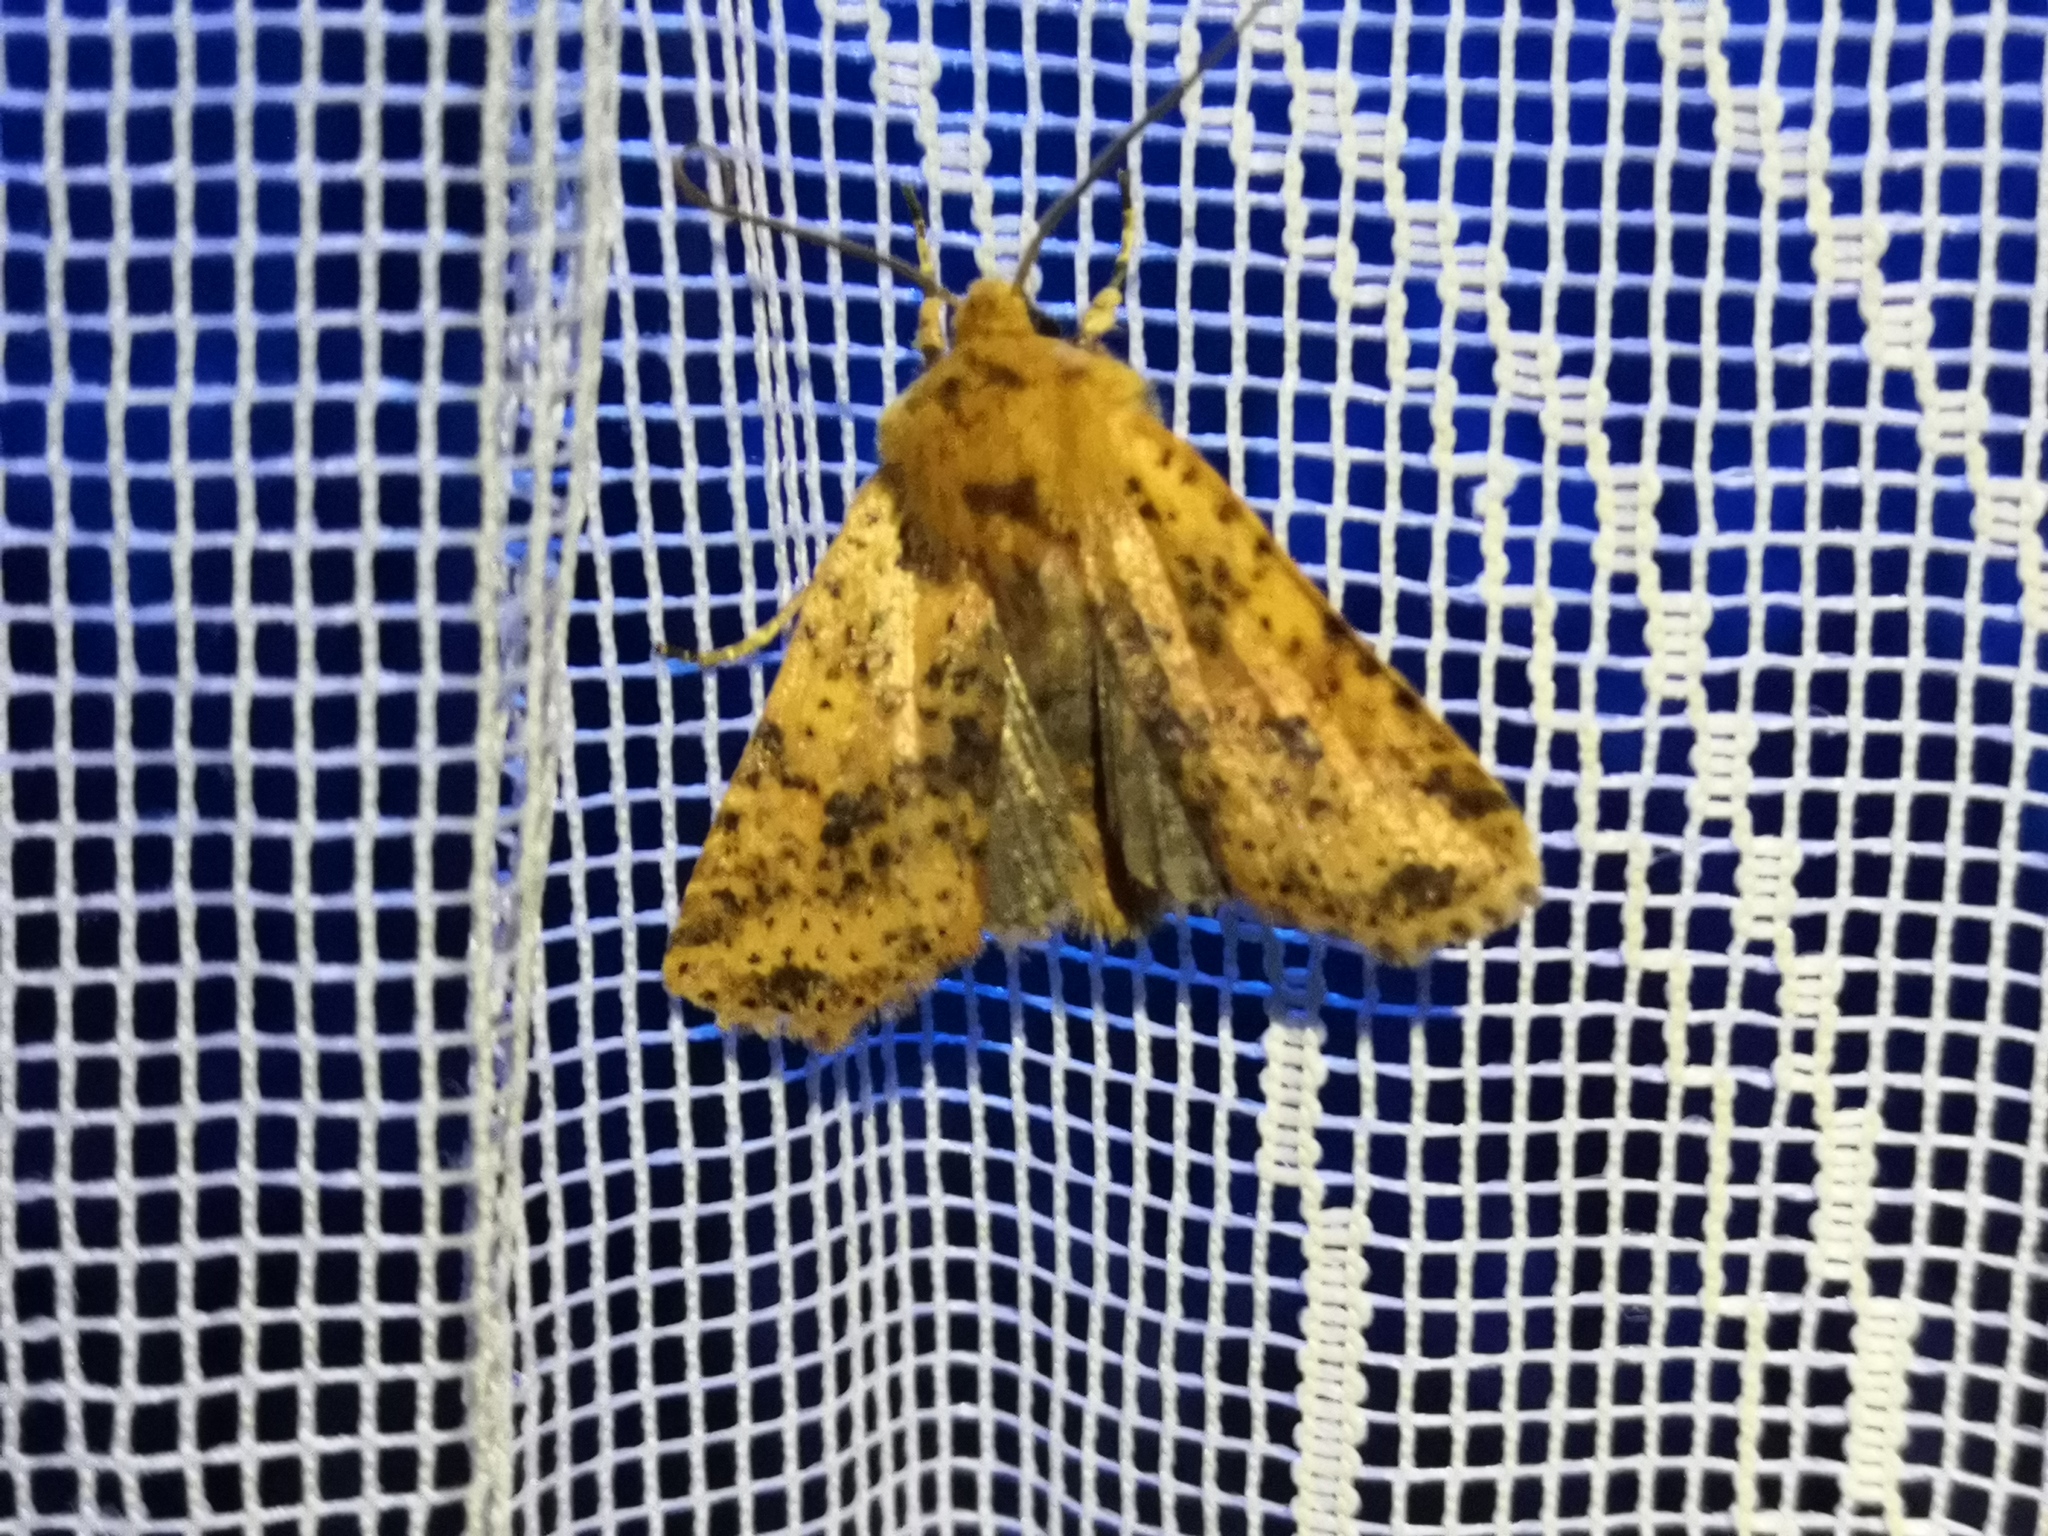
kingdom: Animalia
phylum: Arthropoda
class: Insecta
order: Lepidoptera
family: Noctuidae
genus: Conistra
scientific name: Conistra rubiginea
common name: Dotted chestnut
